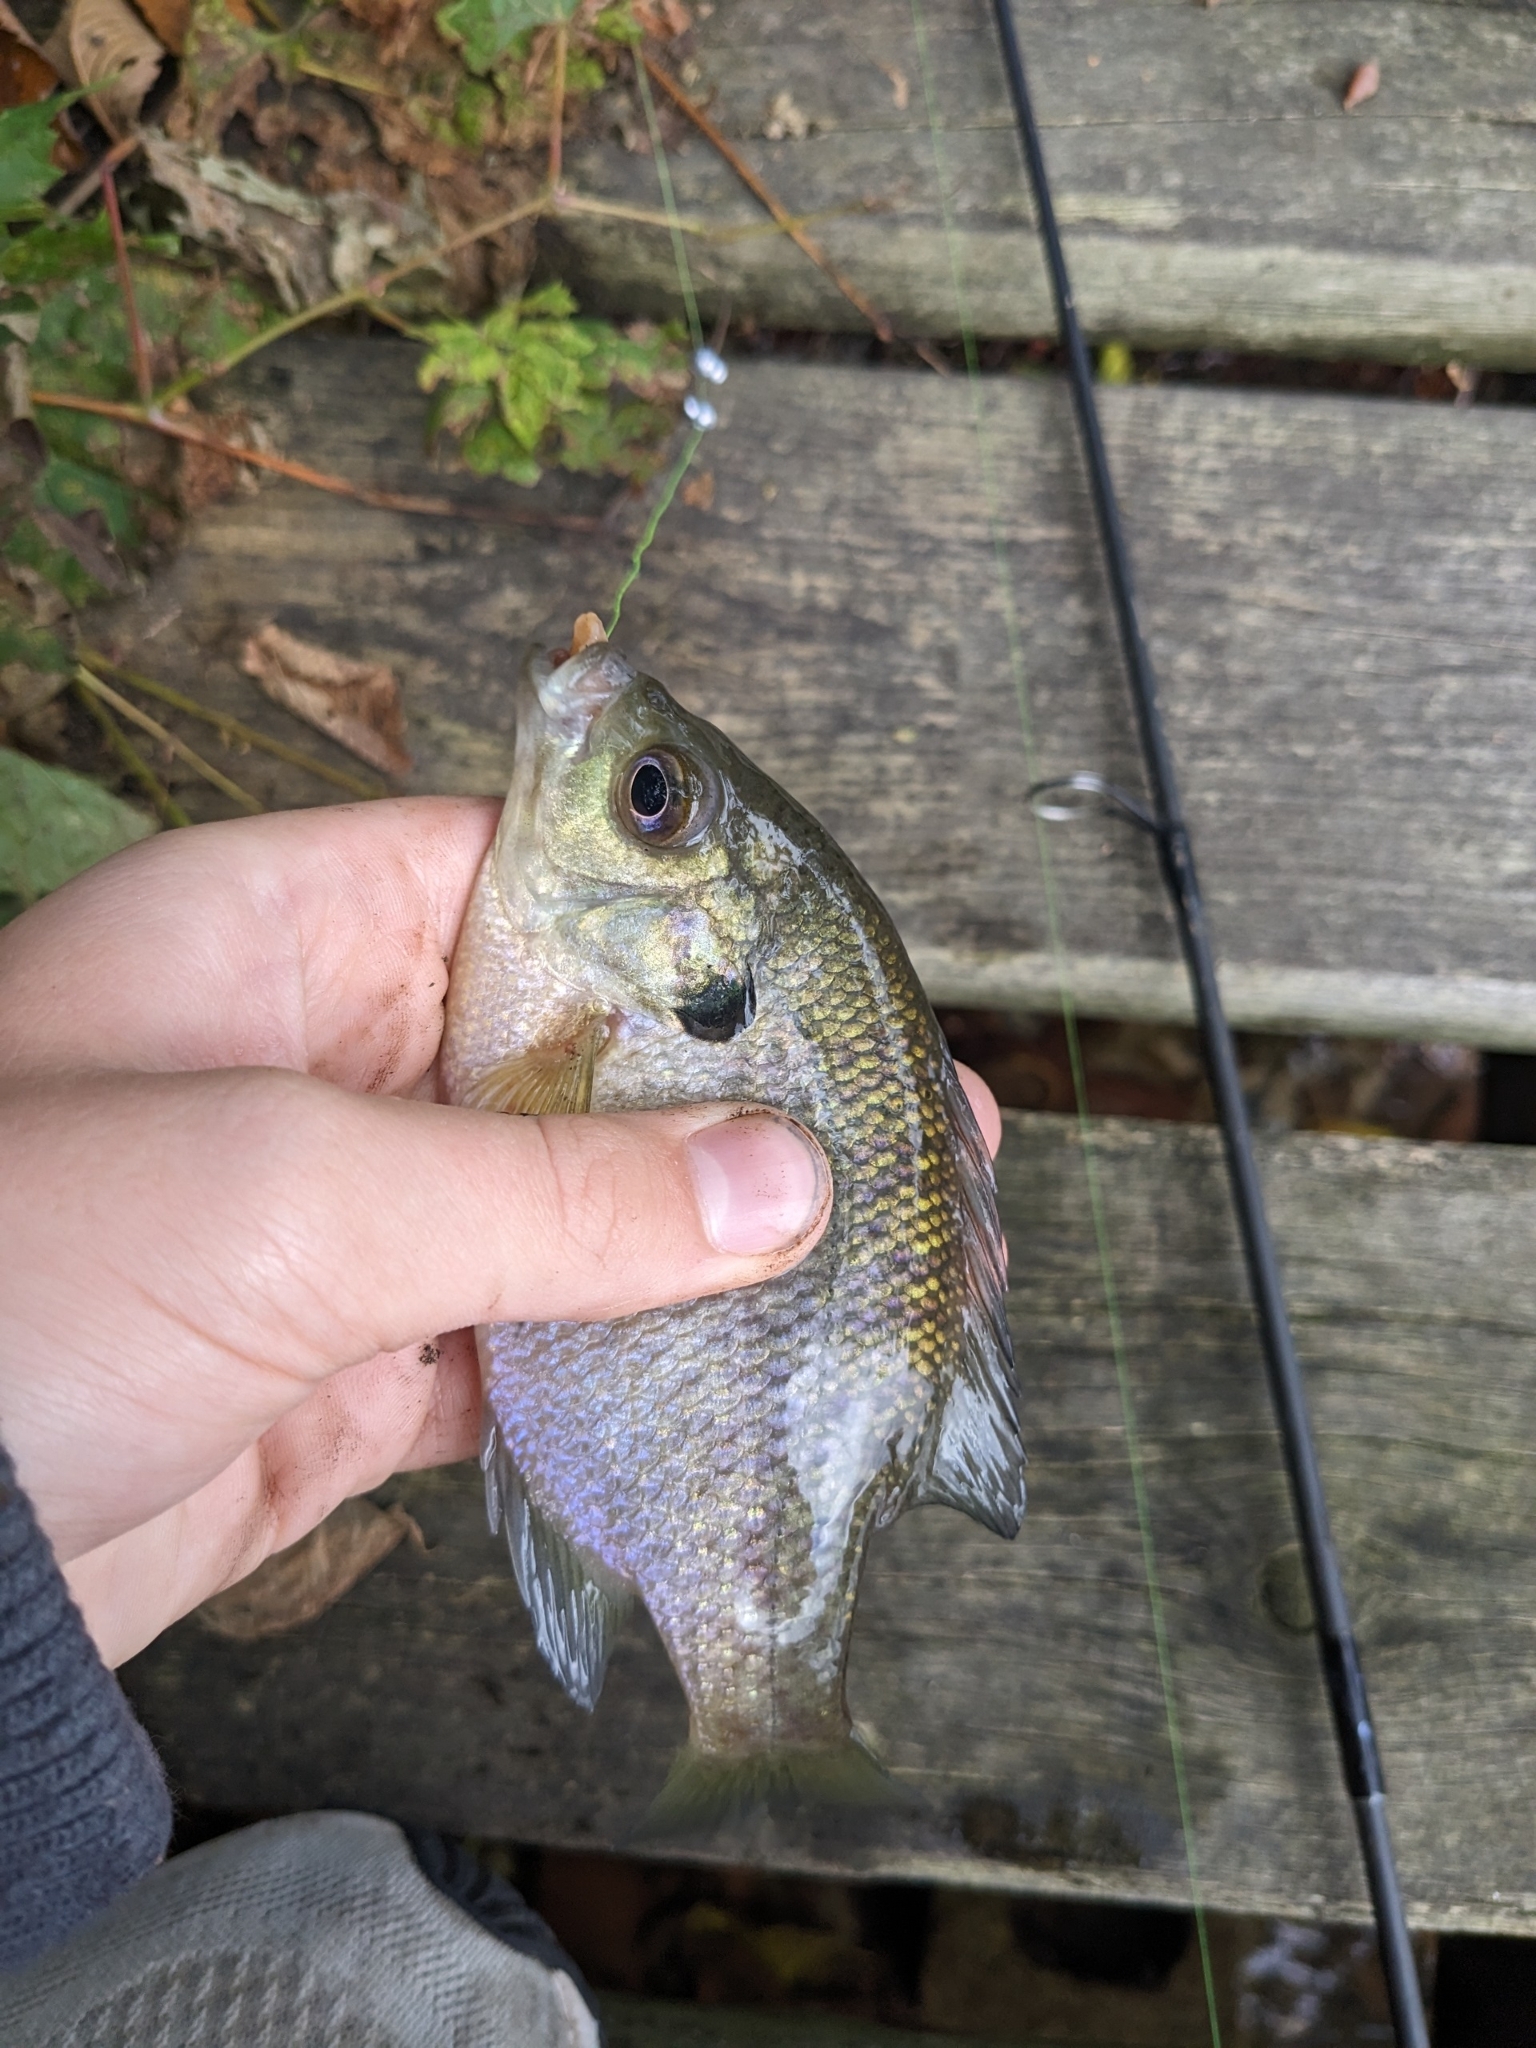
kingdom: Animalia
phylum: Chordata
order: Perciformes
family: Centrarchidae
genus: Lepomis
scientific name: Lepomis macrochirus
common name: Bluegill
